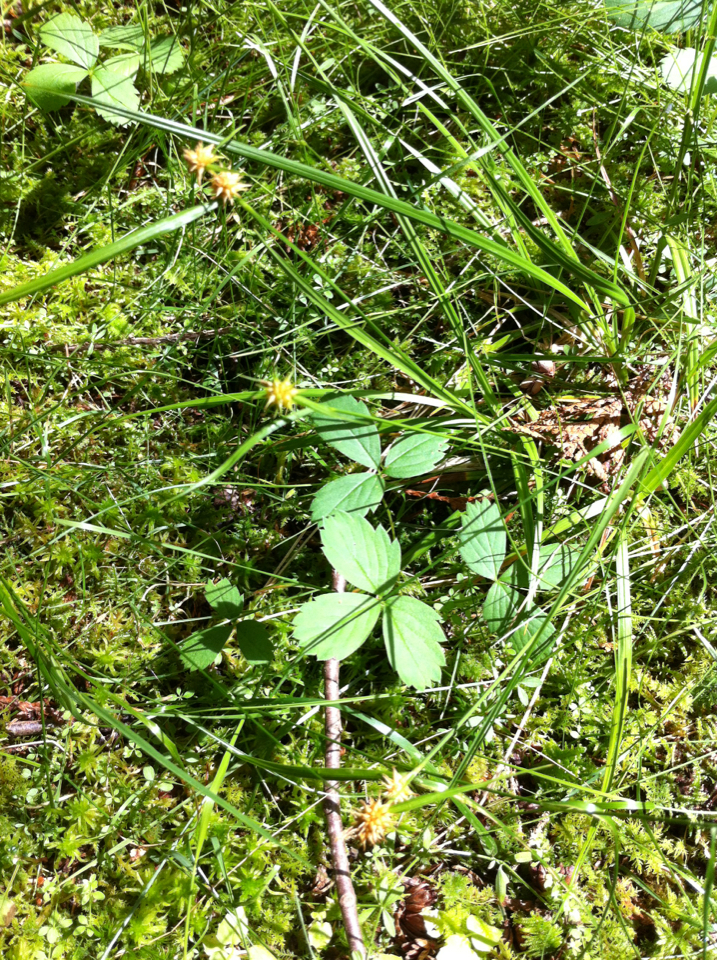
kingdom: Plantae
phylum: Tracheophyta
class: Liliopsida
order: Poales
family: Cyperaceae
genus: Carex
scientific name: Carex flava
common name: Large yellow-sedge
